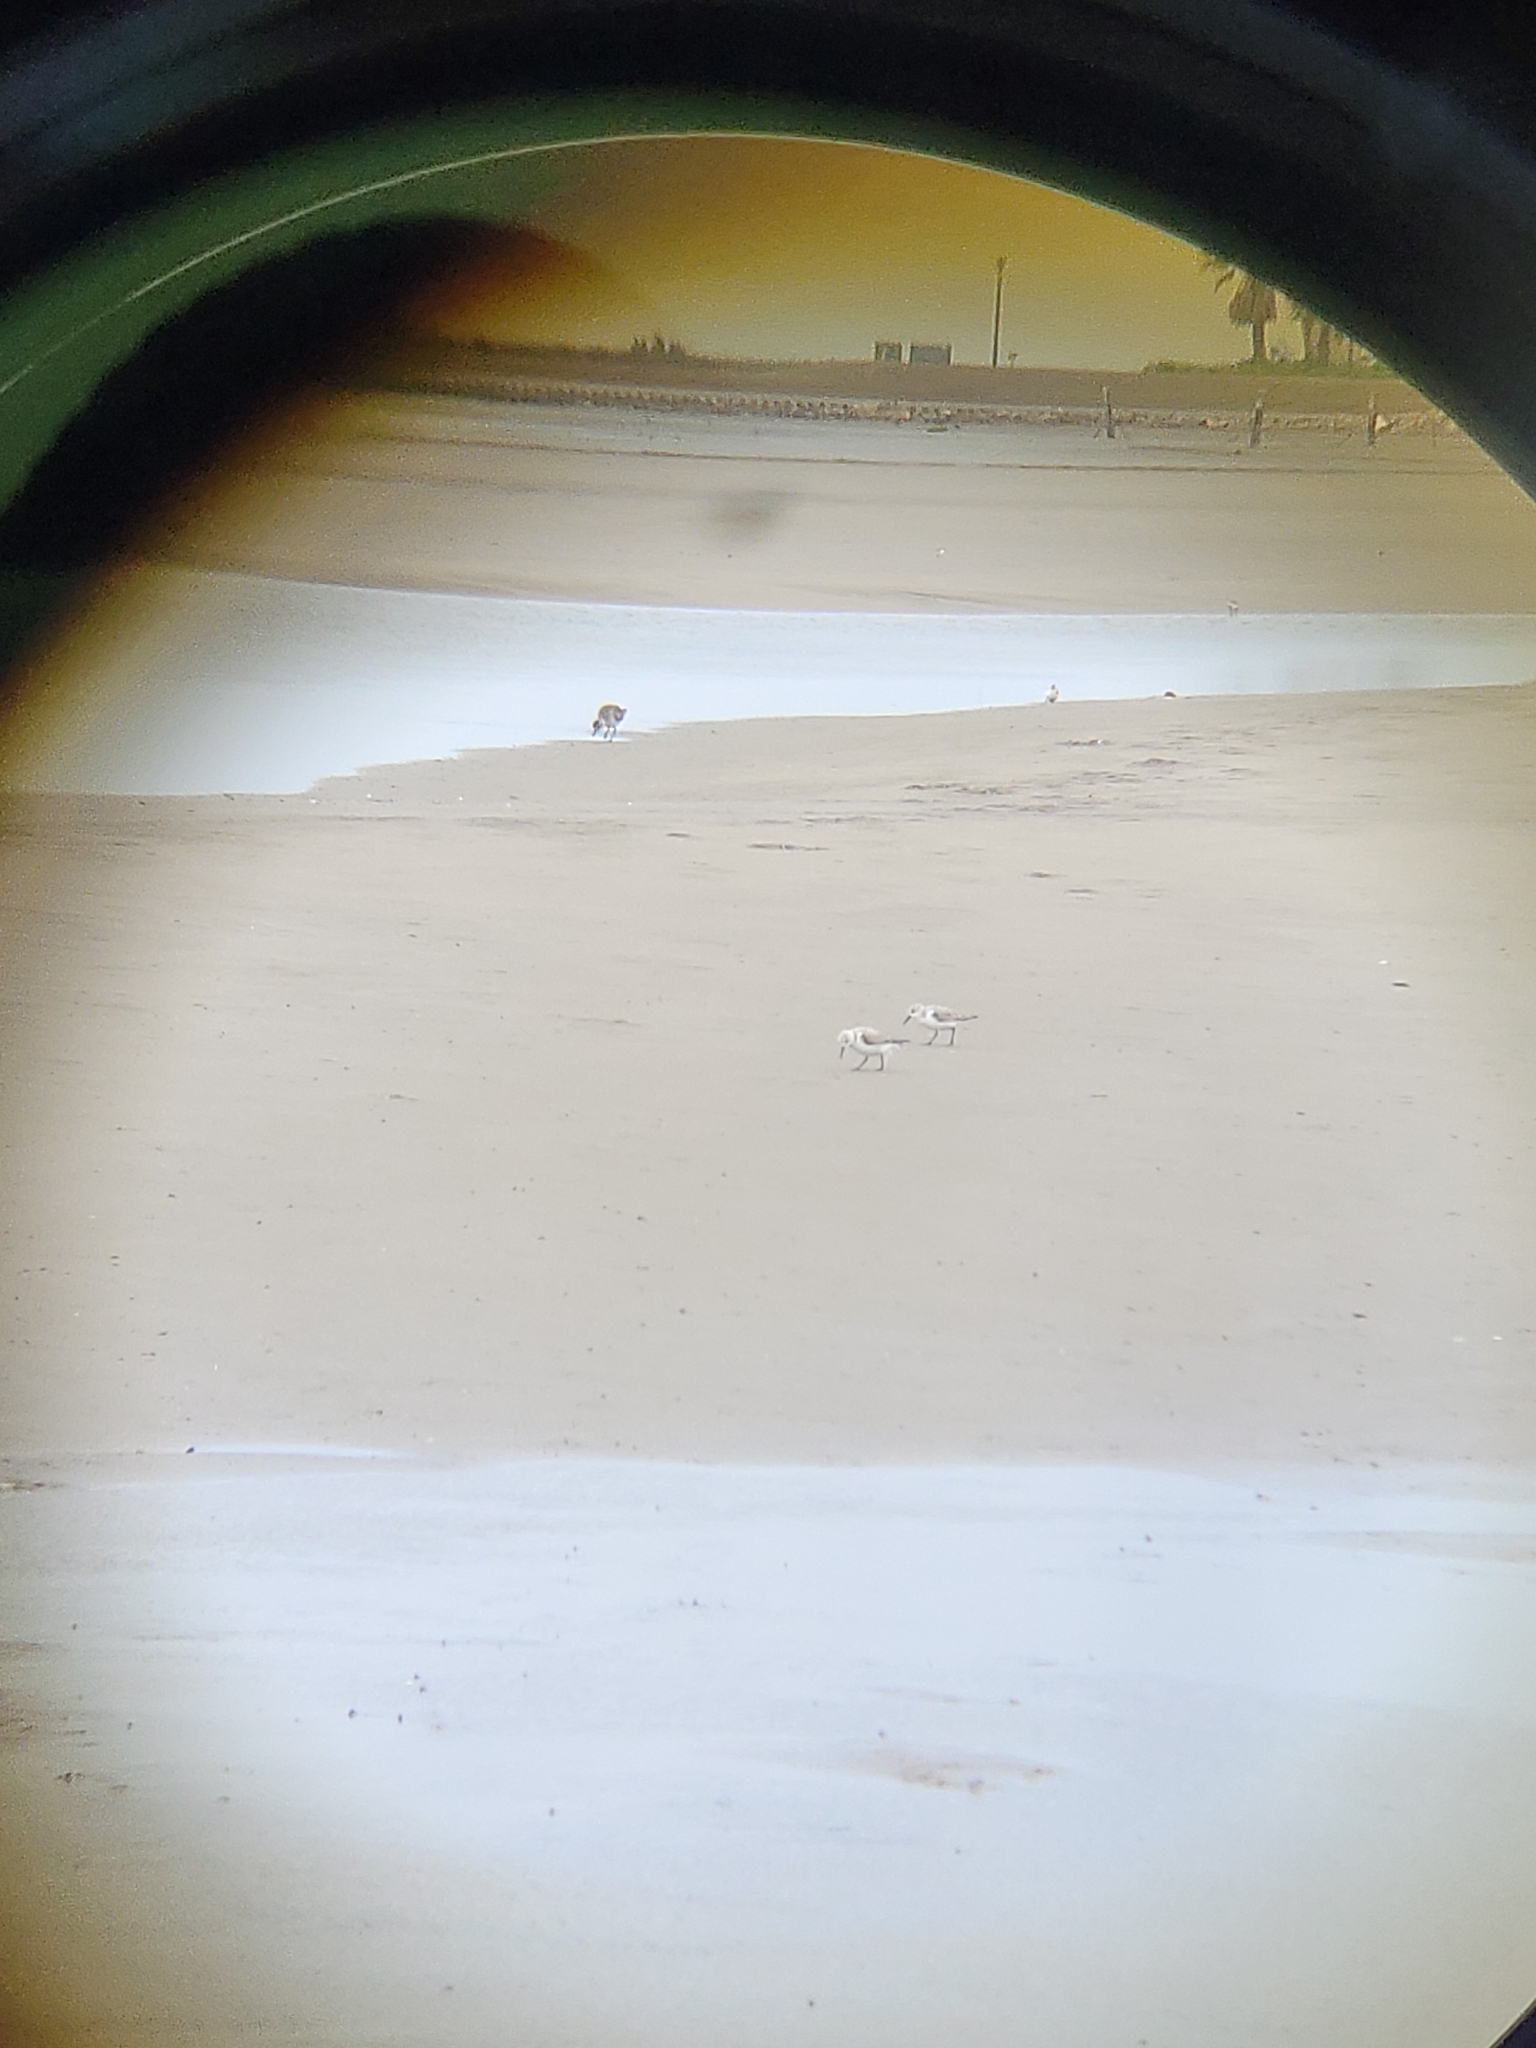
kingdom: Animalia
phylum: Chordata
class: Aves
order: Charadriiformes
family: Scolopacidae
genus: Calidris
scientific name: Calidris alba
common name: Sanderling
